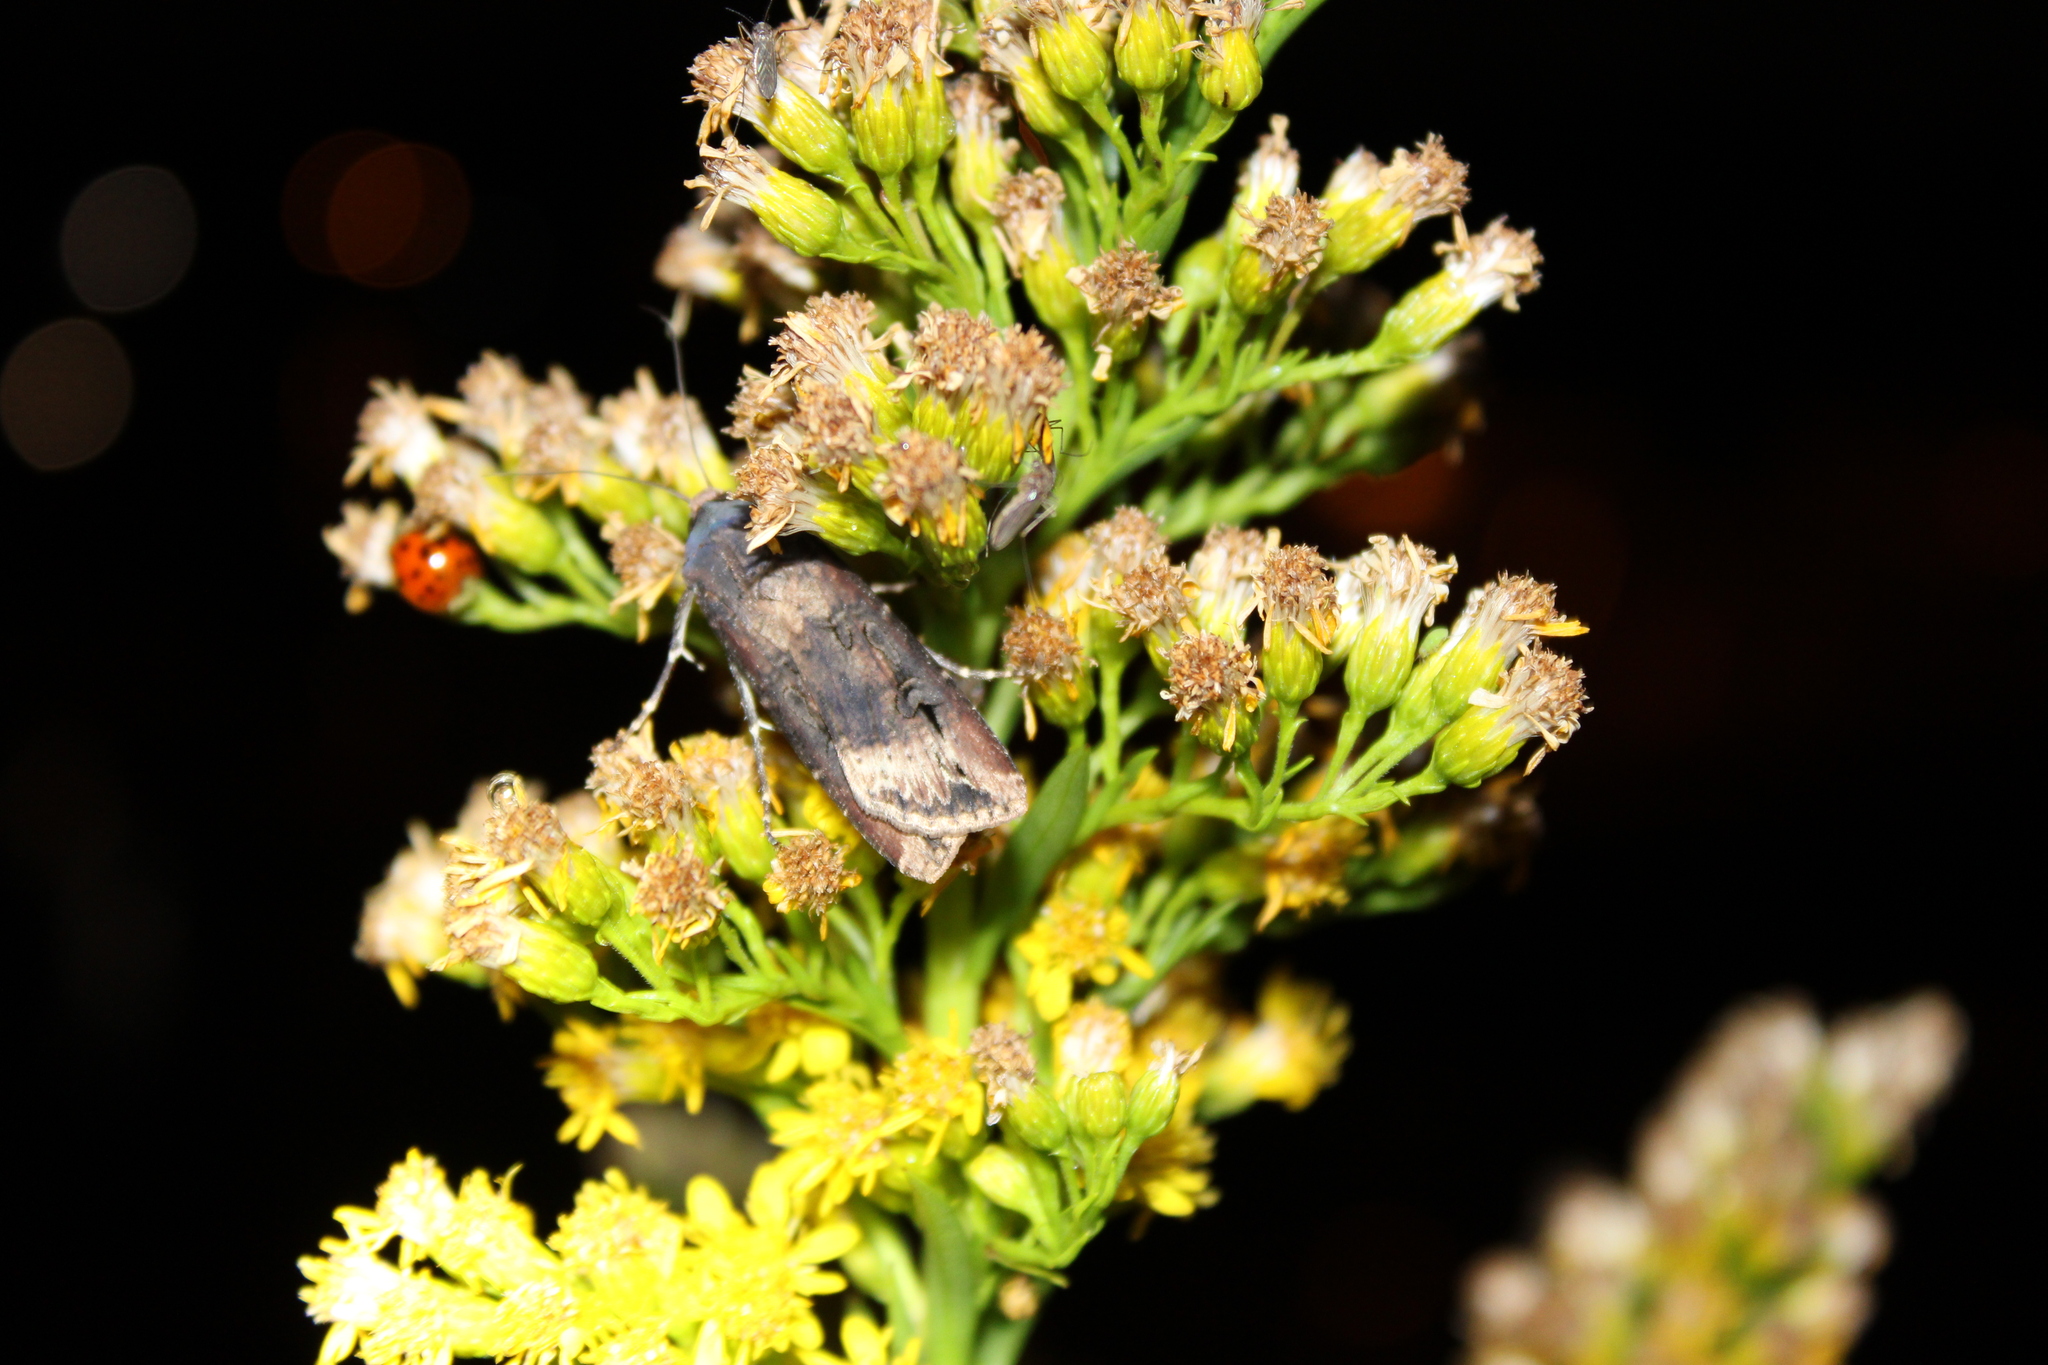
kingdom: Animalia
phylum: Arthropoda
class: Insecta
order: Lepidoptera
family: Noctuidae
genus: Agrotis
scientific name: Agrotis ipsilon
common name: Dark sword-grass
